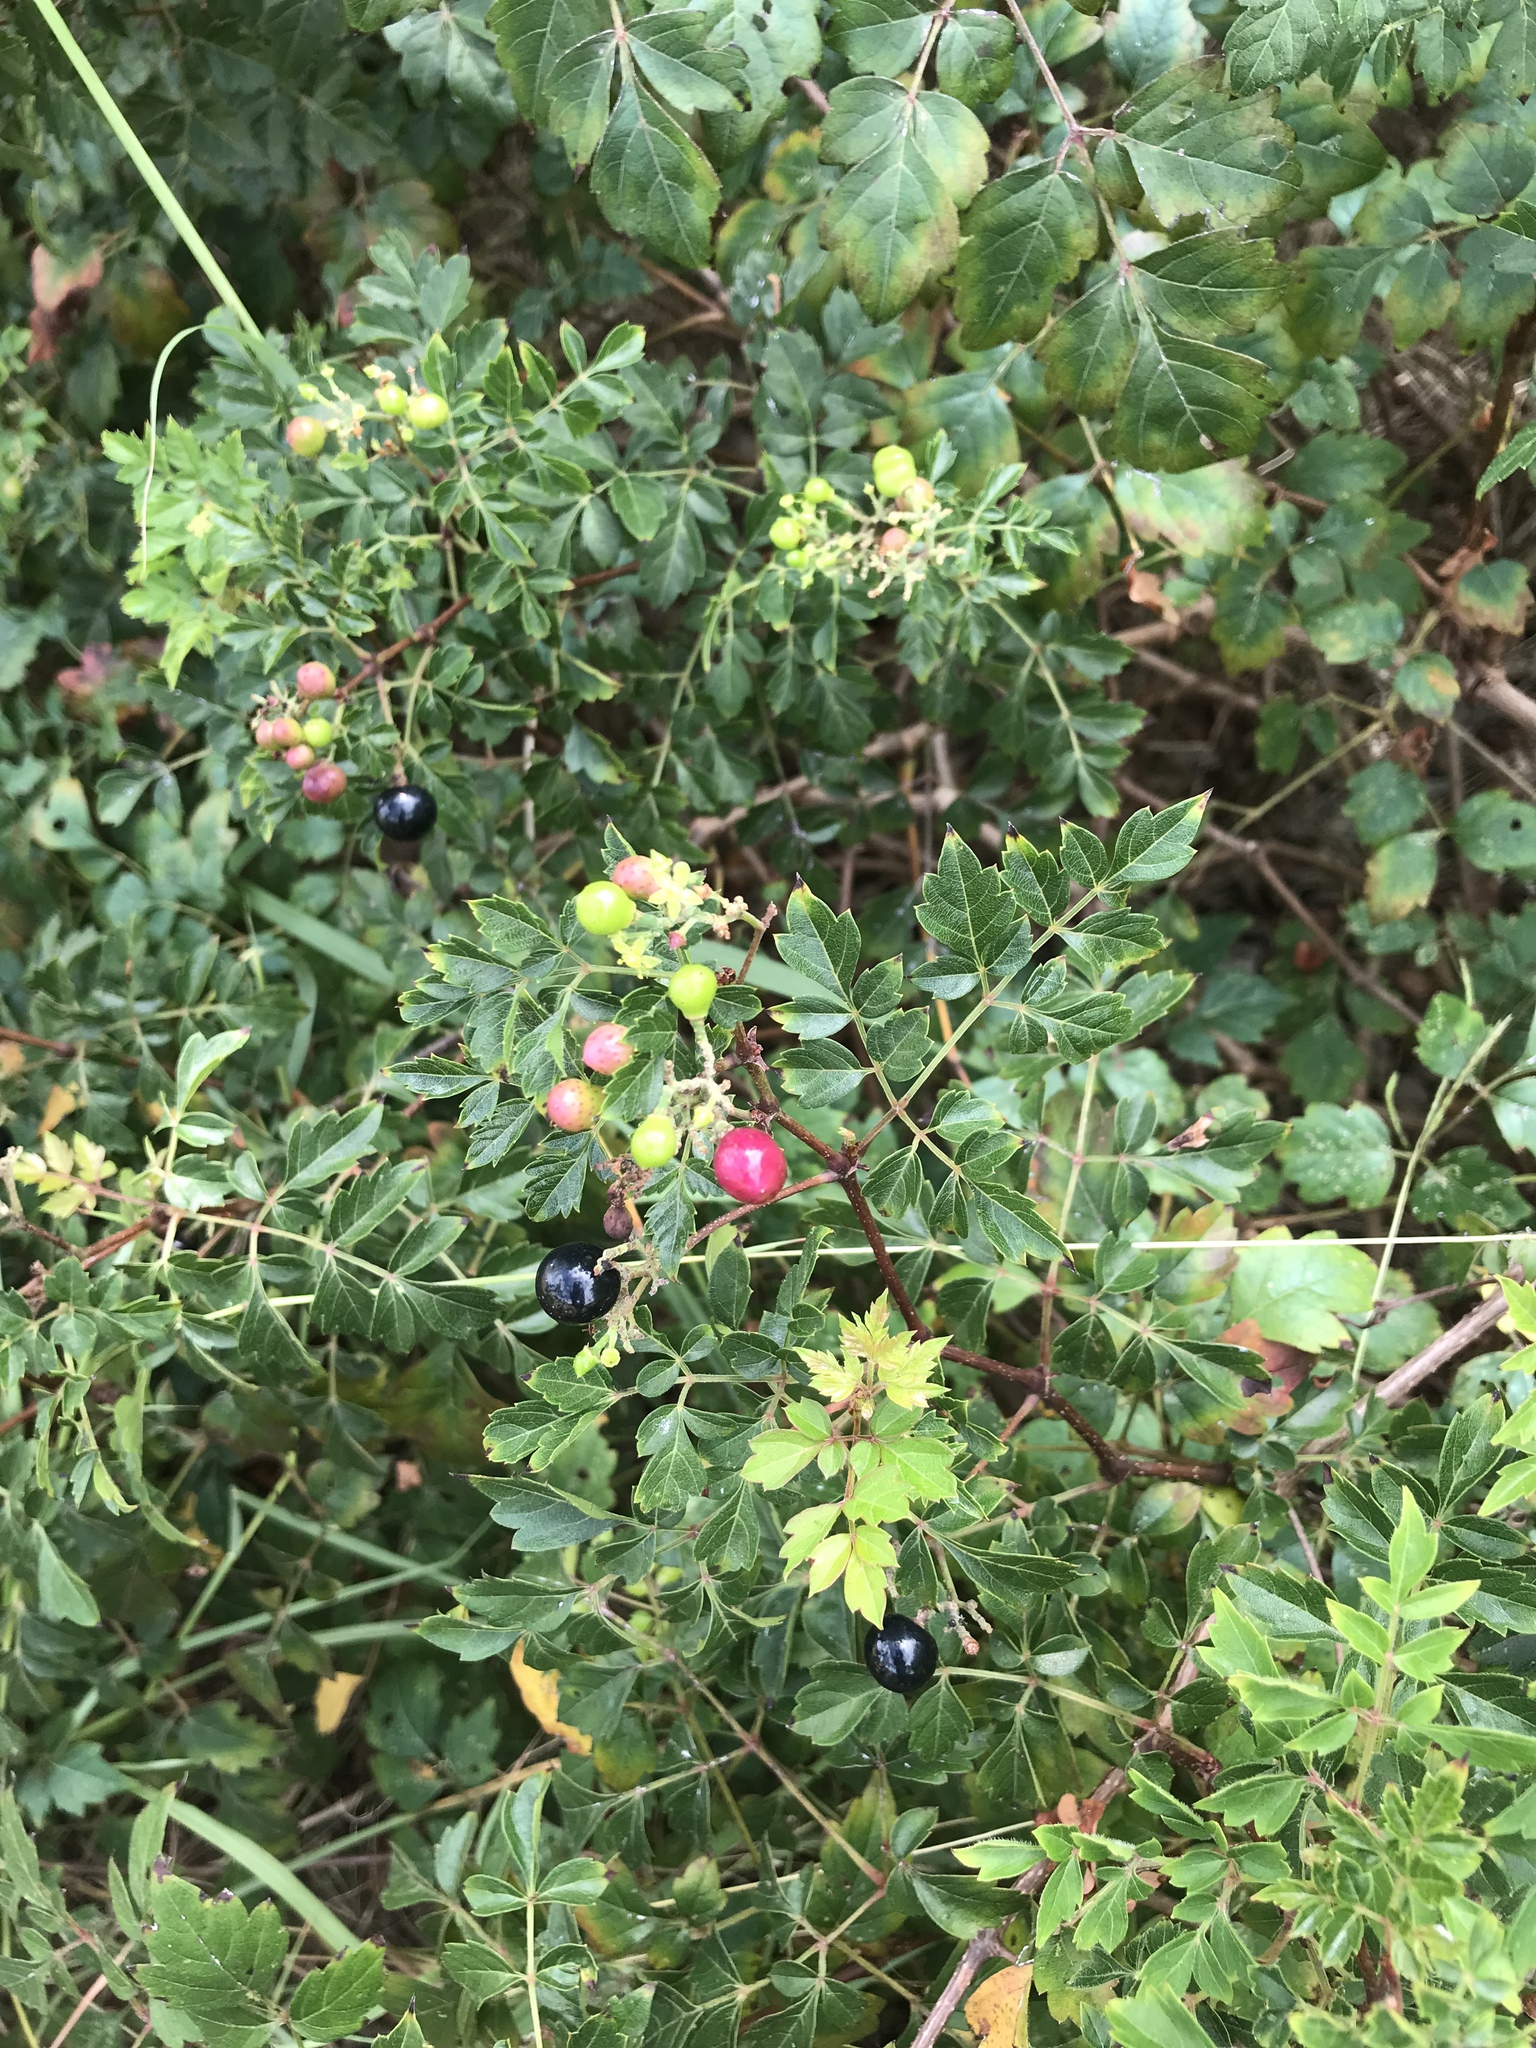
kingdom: Plantae
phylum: Tracheophyta
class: Magnoliopsida
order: Vitales
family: Vitaceae
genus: Nekemias
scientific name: Nekemias arborea
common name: Peppervine
